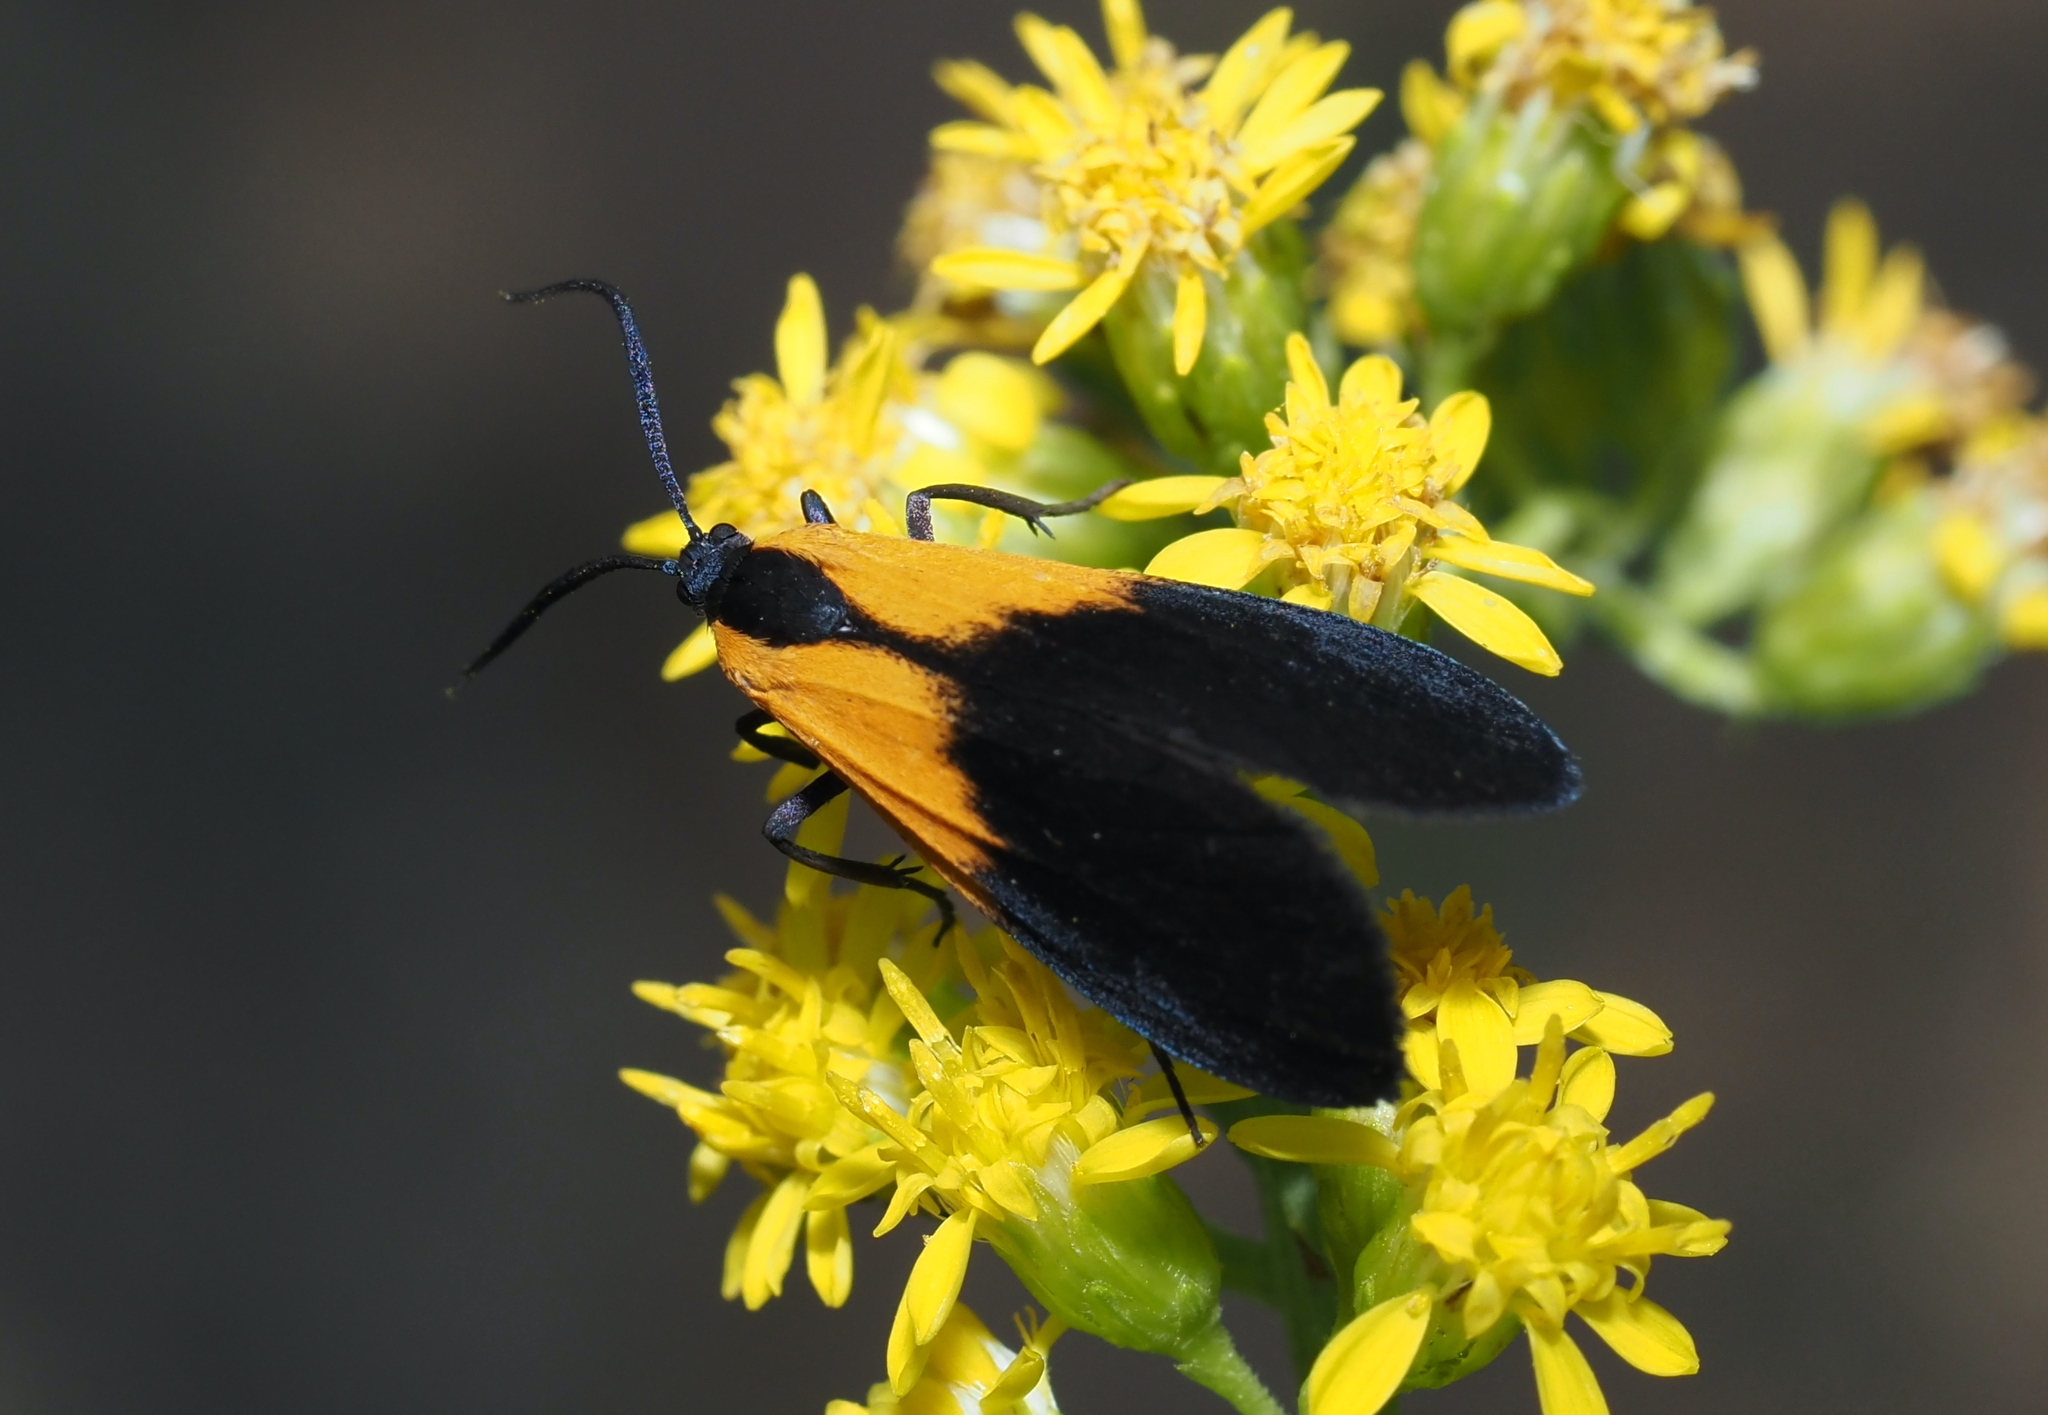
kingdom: Animalia
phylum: Arthropoda
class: Insecta
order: Lepidoptera
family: Erebidae
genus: Lycomorpha
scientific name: Lycomorpha pholus
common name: Black-and-yellow lichen moth
